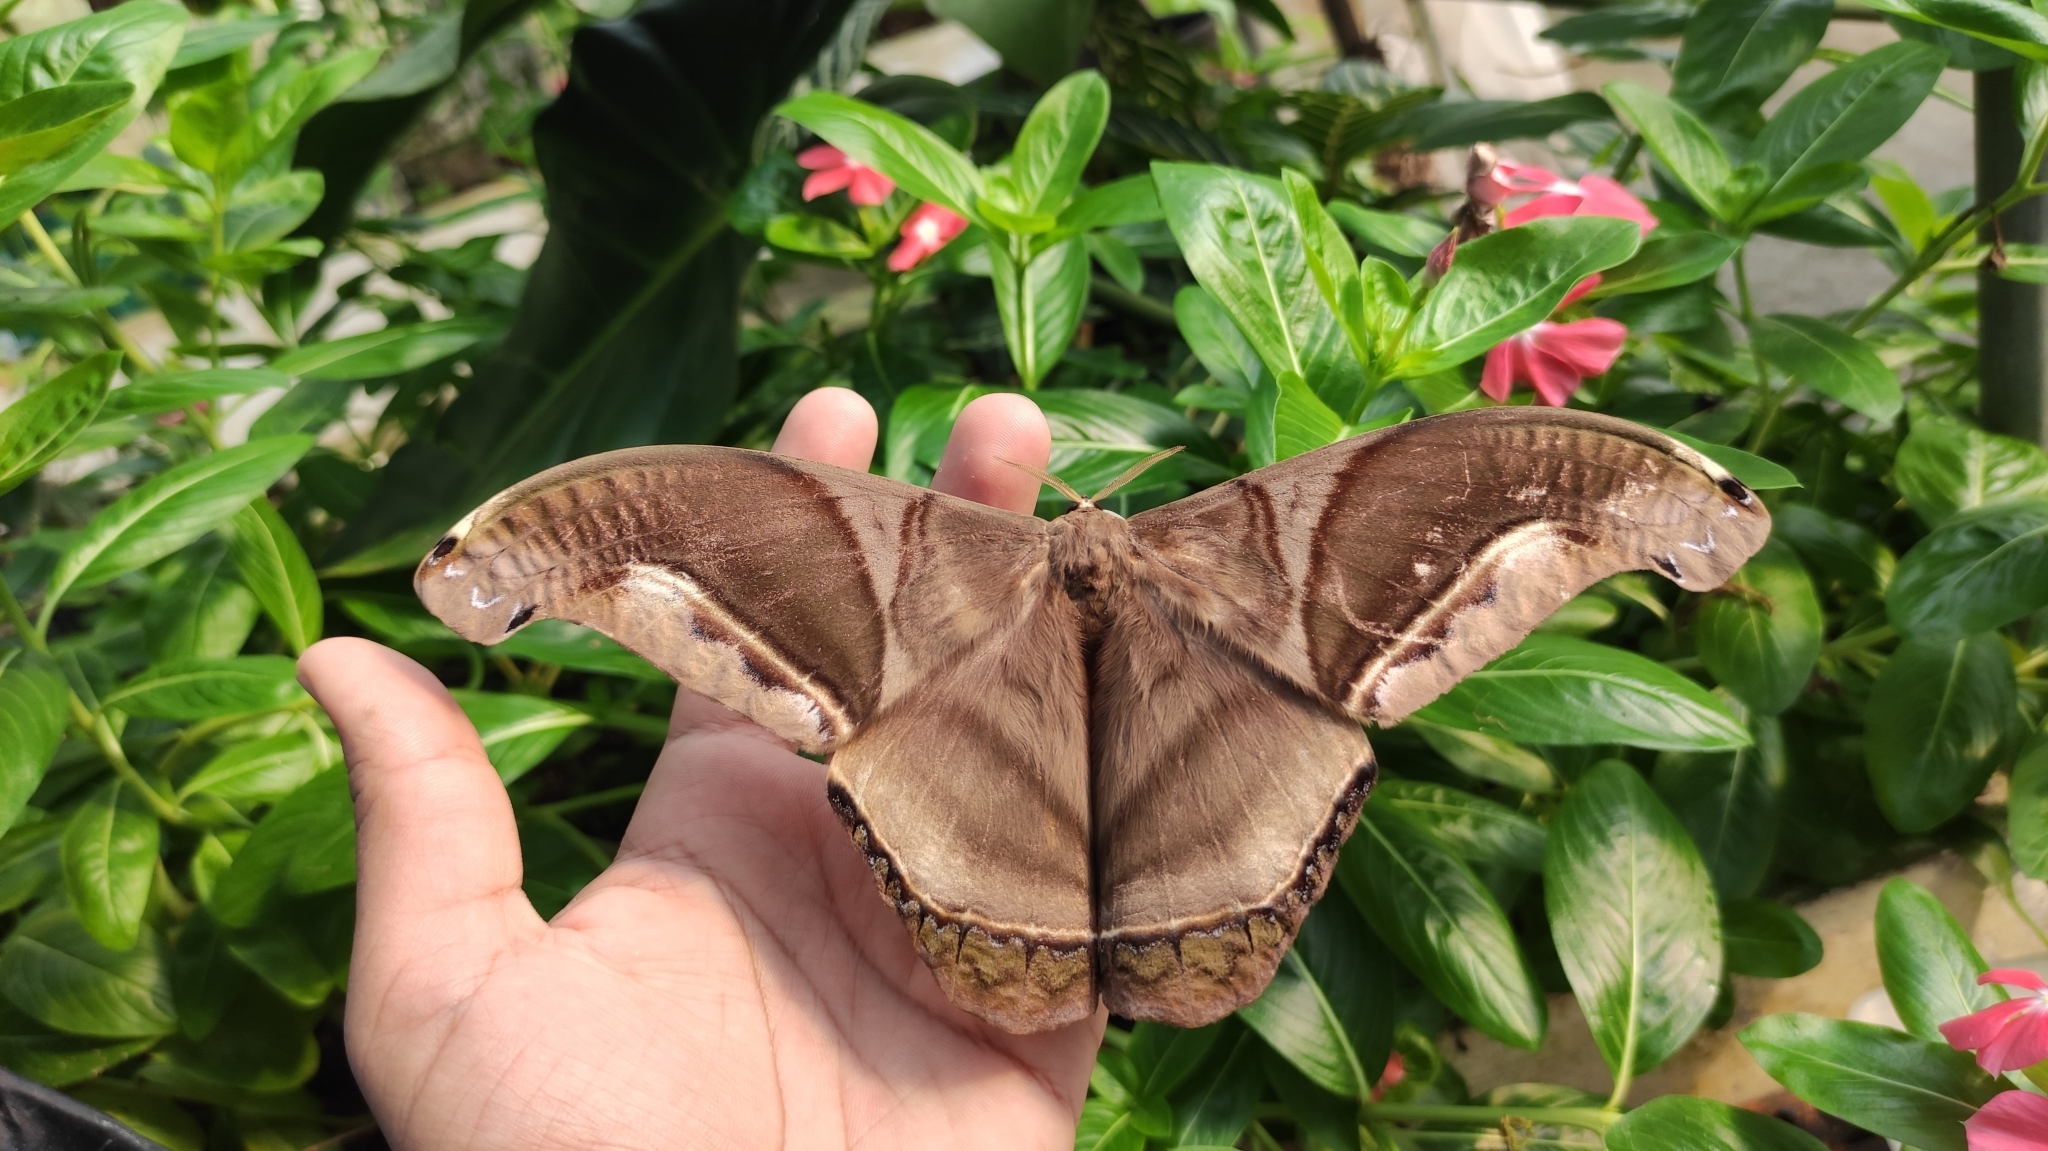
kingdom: Animalia
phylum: Arthropoda
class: Insecta
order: Lepidoptera
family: Saturniidae
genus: Rhescyntis
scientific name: Rhescyntis hippodamia
